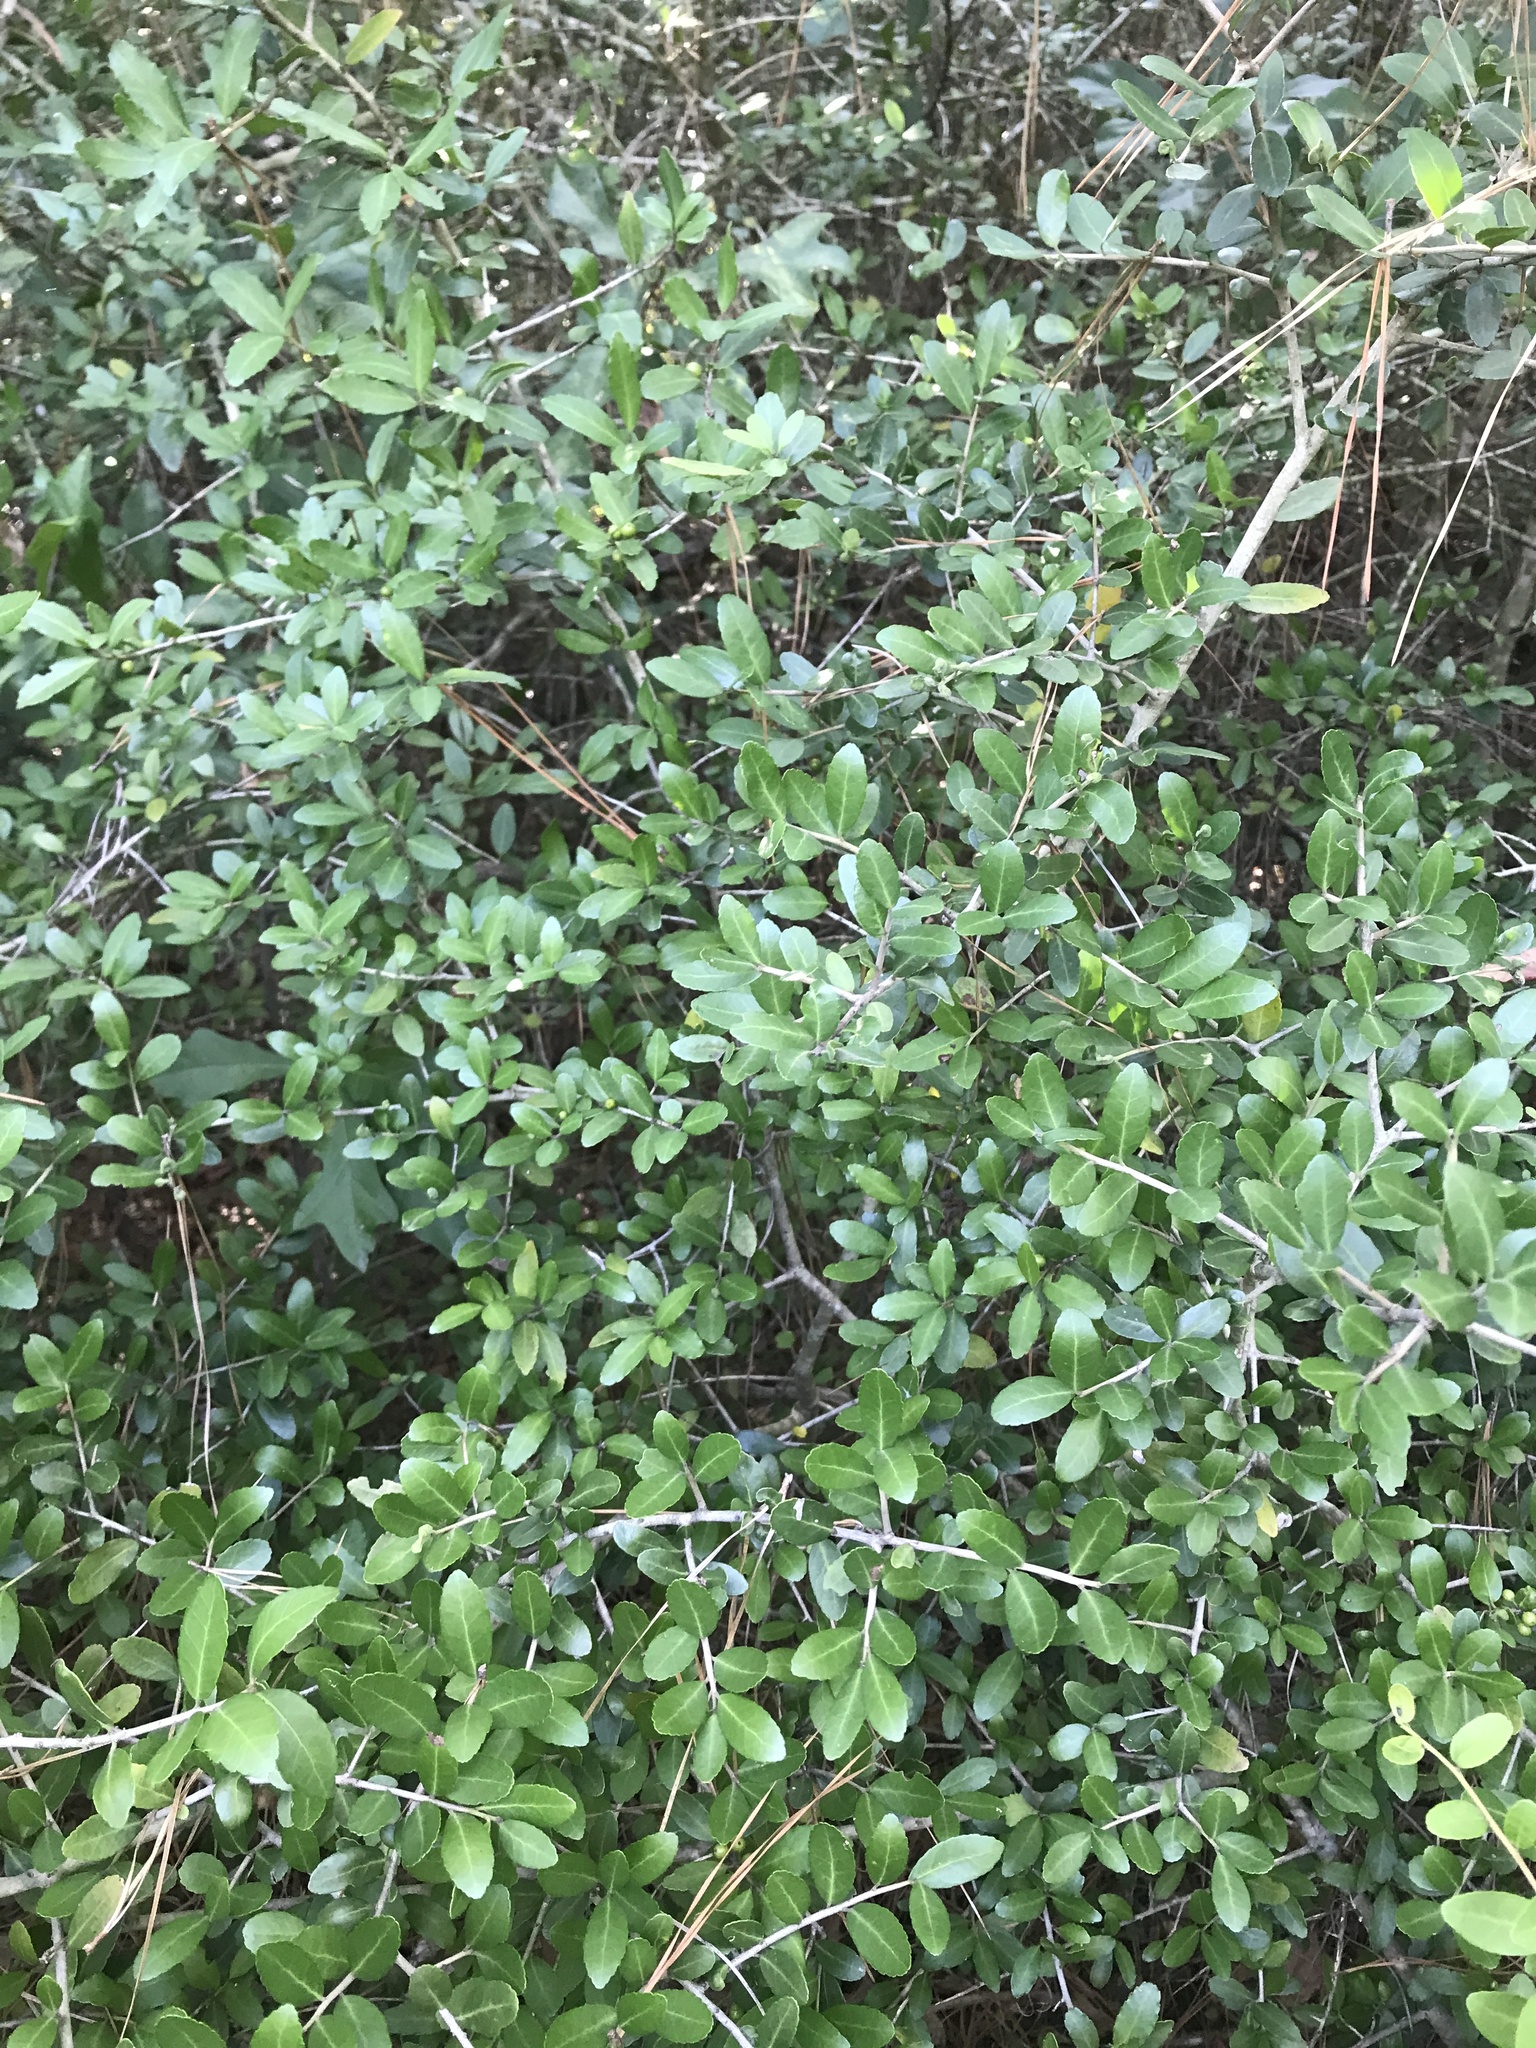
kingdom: Plantae
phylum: Tracheophyta
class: Magnoliopsida
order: Aquifoliales
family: Aquifoliaceae
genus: Ilex
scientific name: Ilex vomitoria
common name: Yaupon holly
